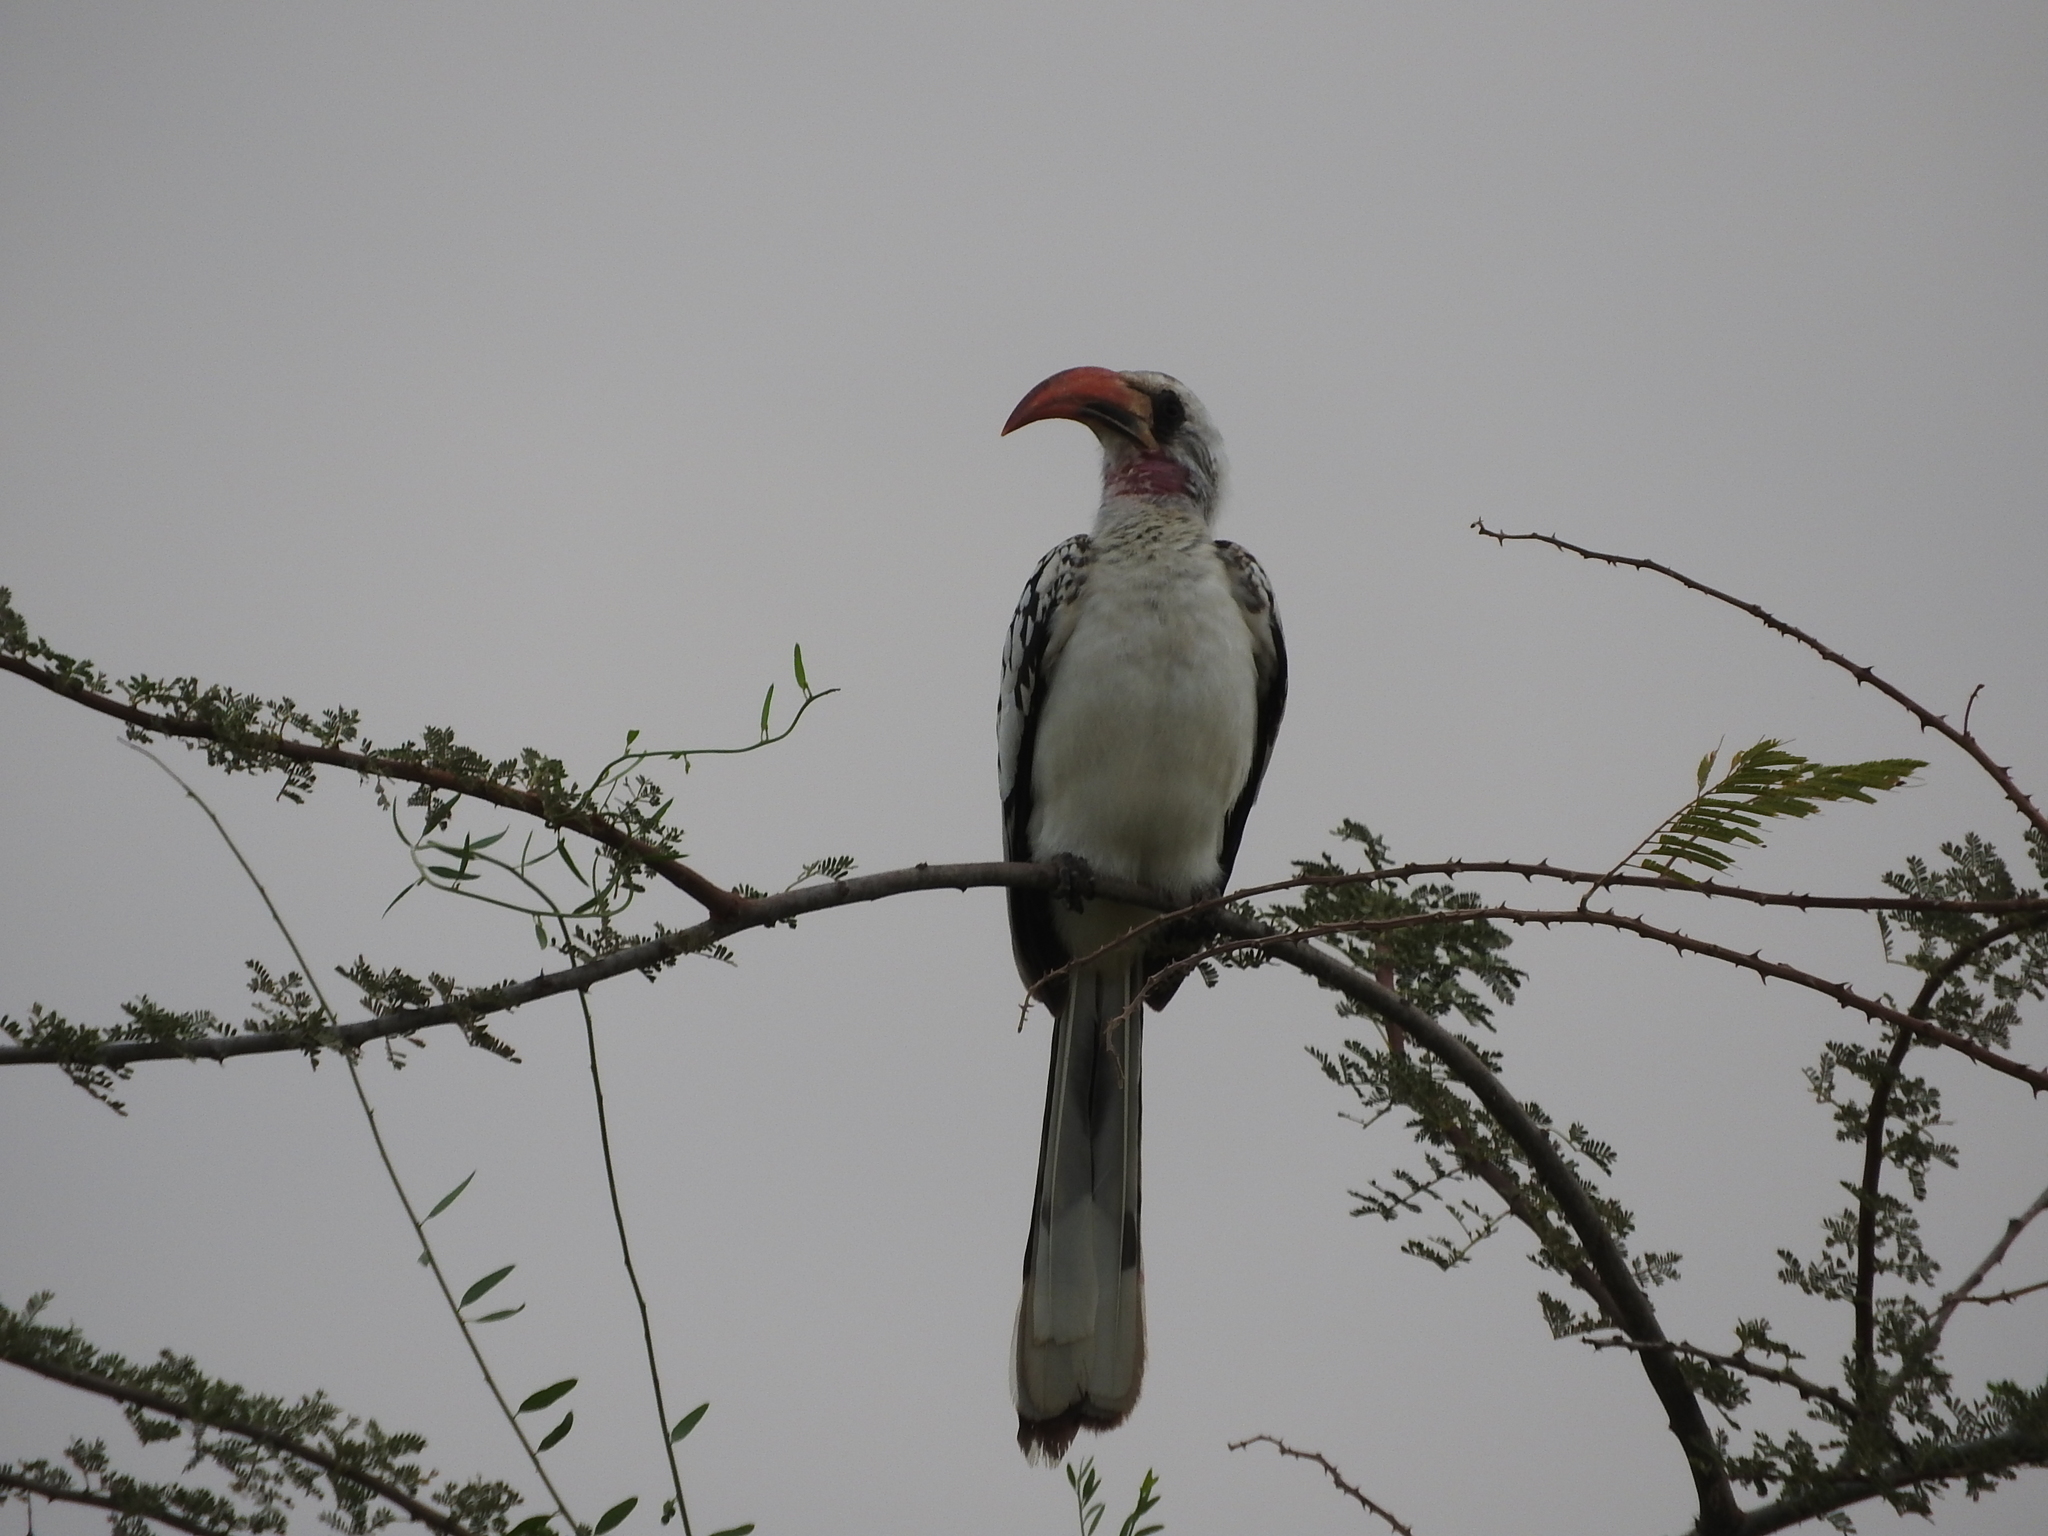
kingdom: Animalia
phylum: Chordata
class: Aves
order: Bucerotiformes
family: Bucerotidae
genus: Tockus
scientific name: Tockus kempi
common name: Western red-billed hornbill
